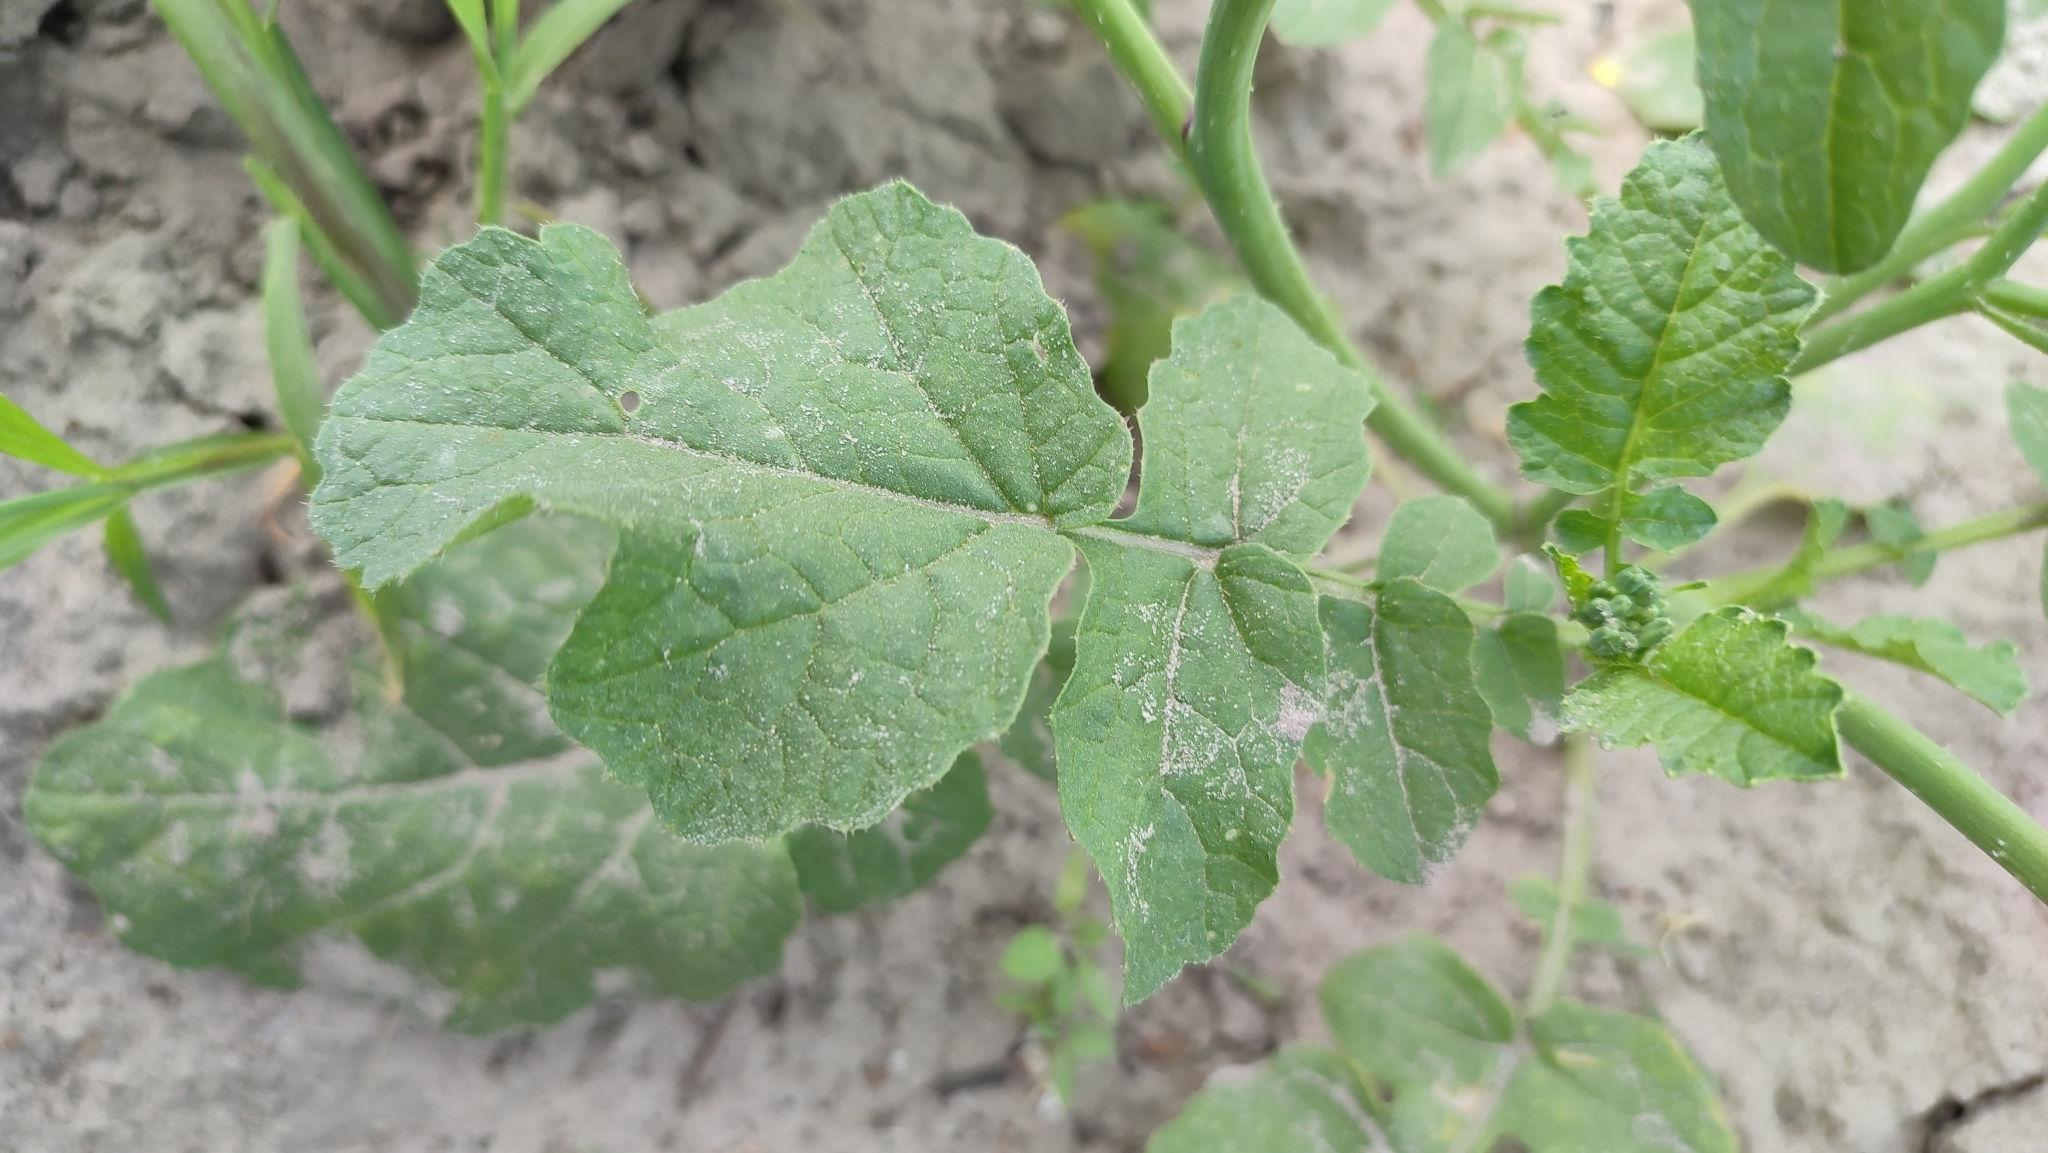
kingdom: Plantae
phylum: Tracheophyta
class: Magnoliopsida
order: Brassicales
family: Brassicaceae
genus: Raphanus
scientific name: Raphanus raphanistrum
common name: Wild radish
